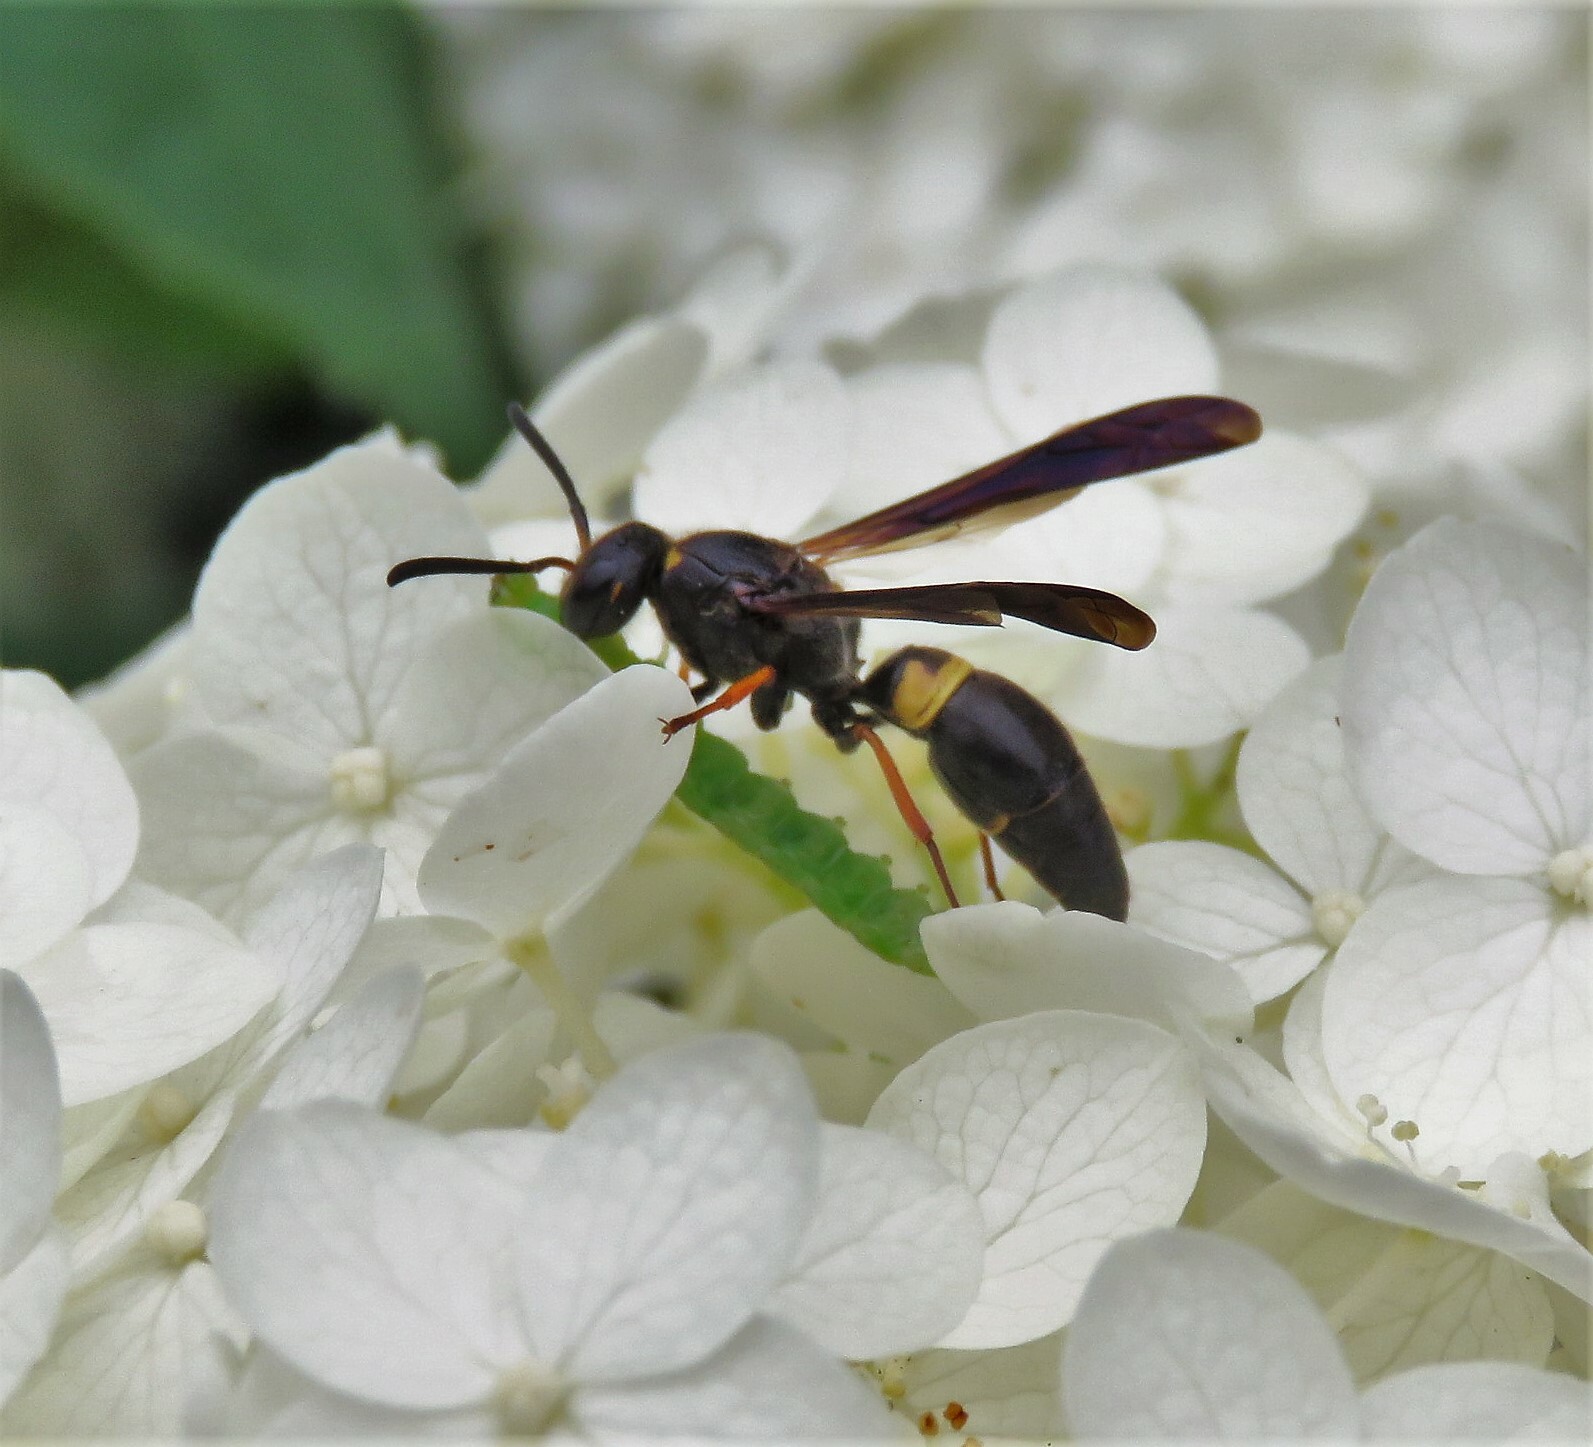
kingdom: Animalia
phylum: Arthropoda
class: Insecta
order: Hymenoptera
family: Vespidae
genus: Ancistrocerus
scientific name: Ancistrocerus unifasciatus
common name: One-banded mason wasp
